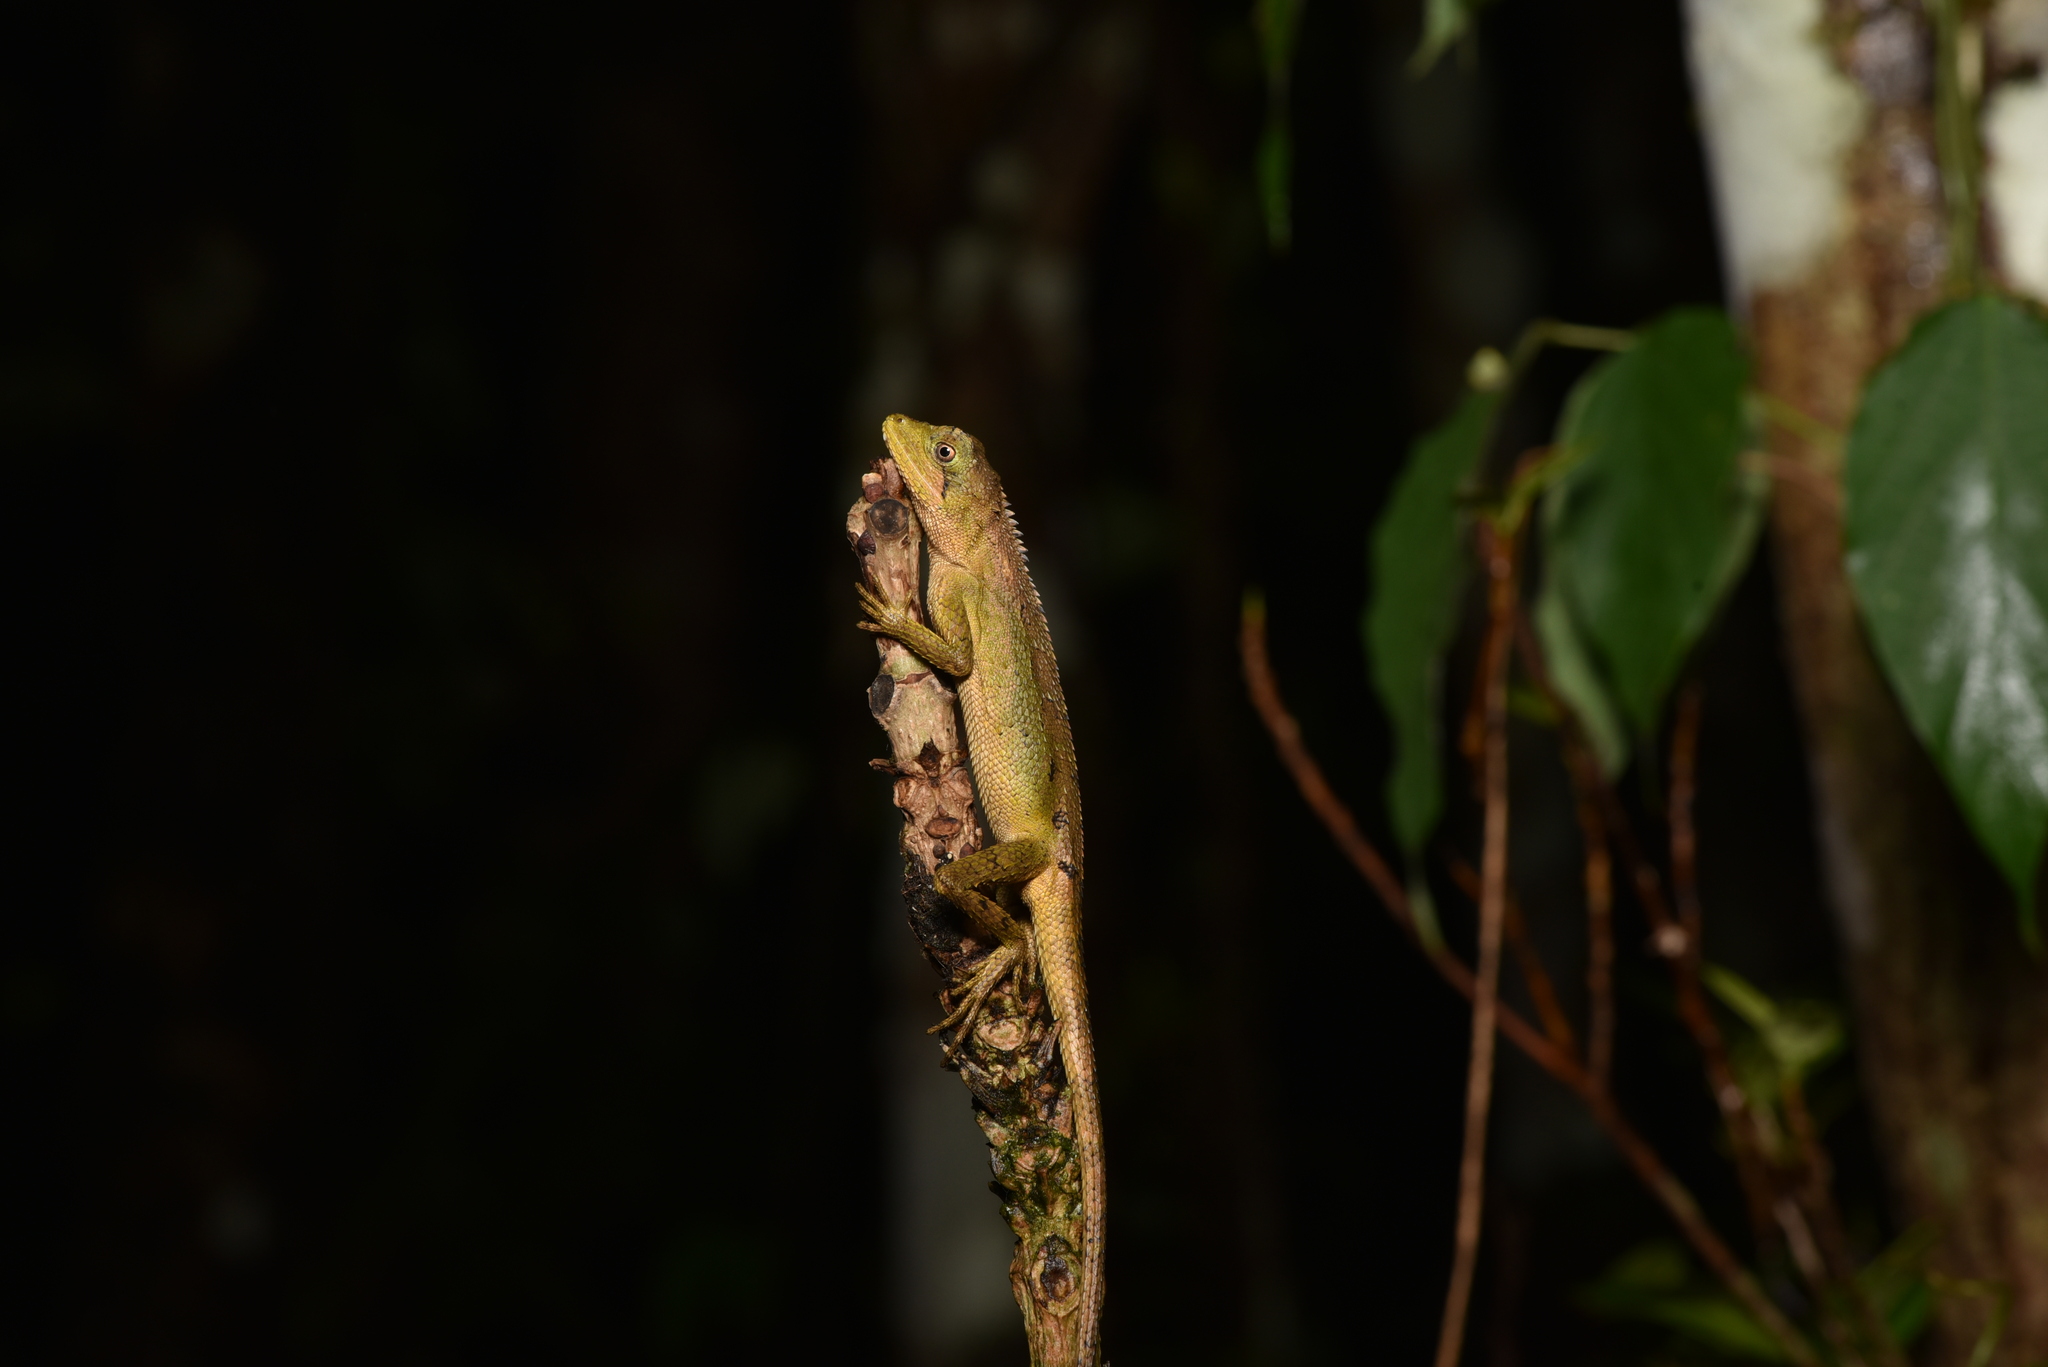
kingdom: Animalia
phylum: Chordata
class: Squamata
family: Agamidae
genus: Diploderma
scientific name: Diploderma swinhonis
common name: Taiwan japalure
